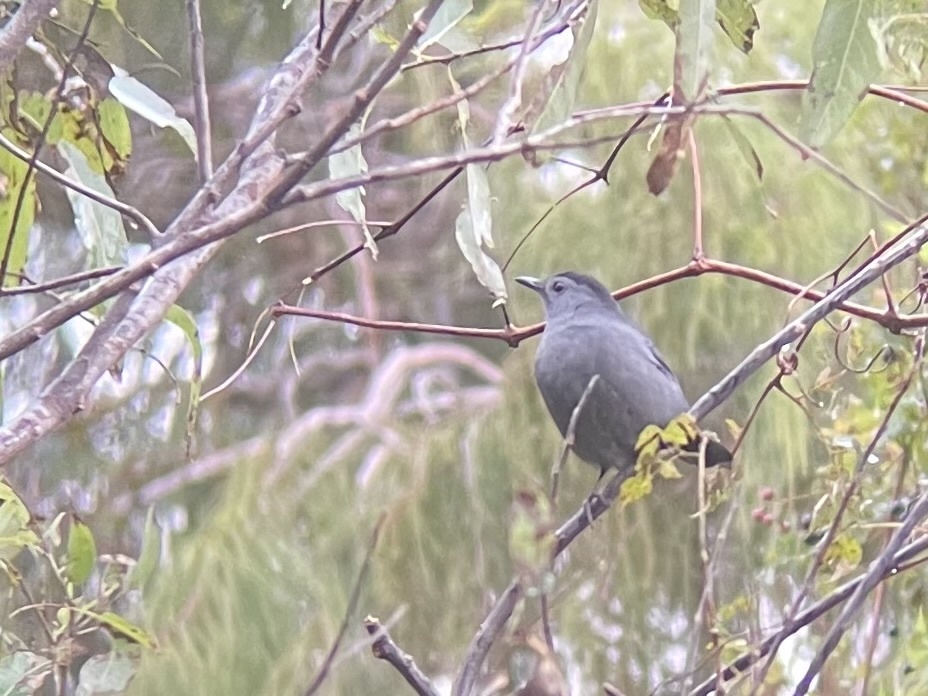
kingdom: Animalia
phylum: Chordata
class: Aves
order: Passeriformes
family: Mimidae
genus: Dumetella
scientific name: Dumetella carolinensis
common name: Gray catbird
